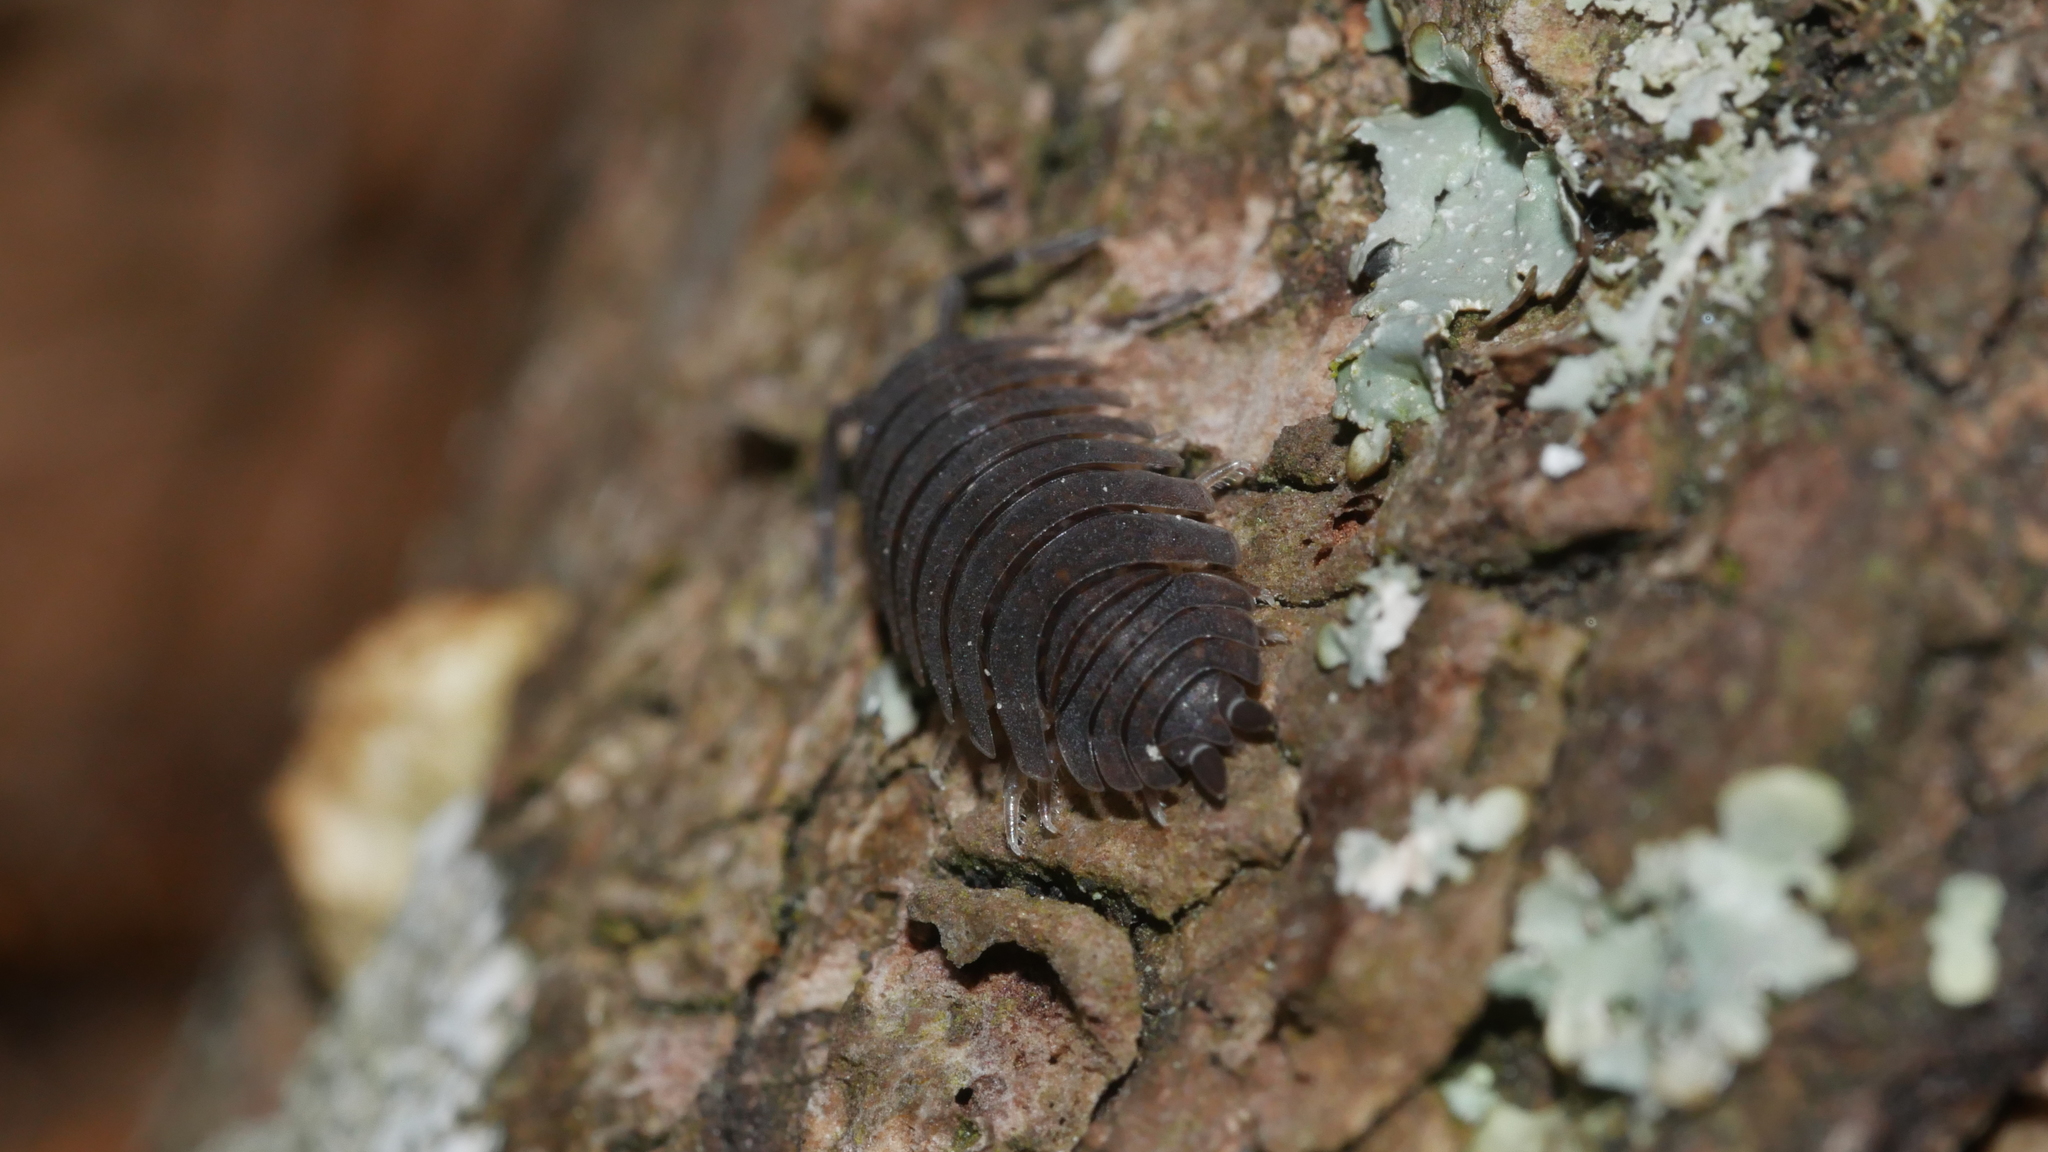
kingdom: Animalia
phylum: Arthropoda
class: Malacostraca
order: Isopoda
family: Porcellionidae
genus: Porcellio
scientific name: Porcellio scaber
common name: Common rough woodlouse
